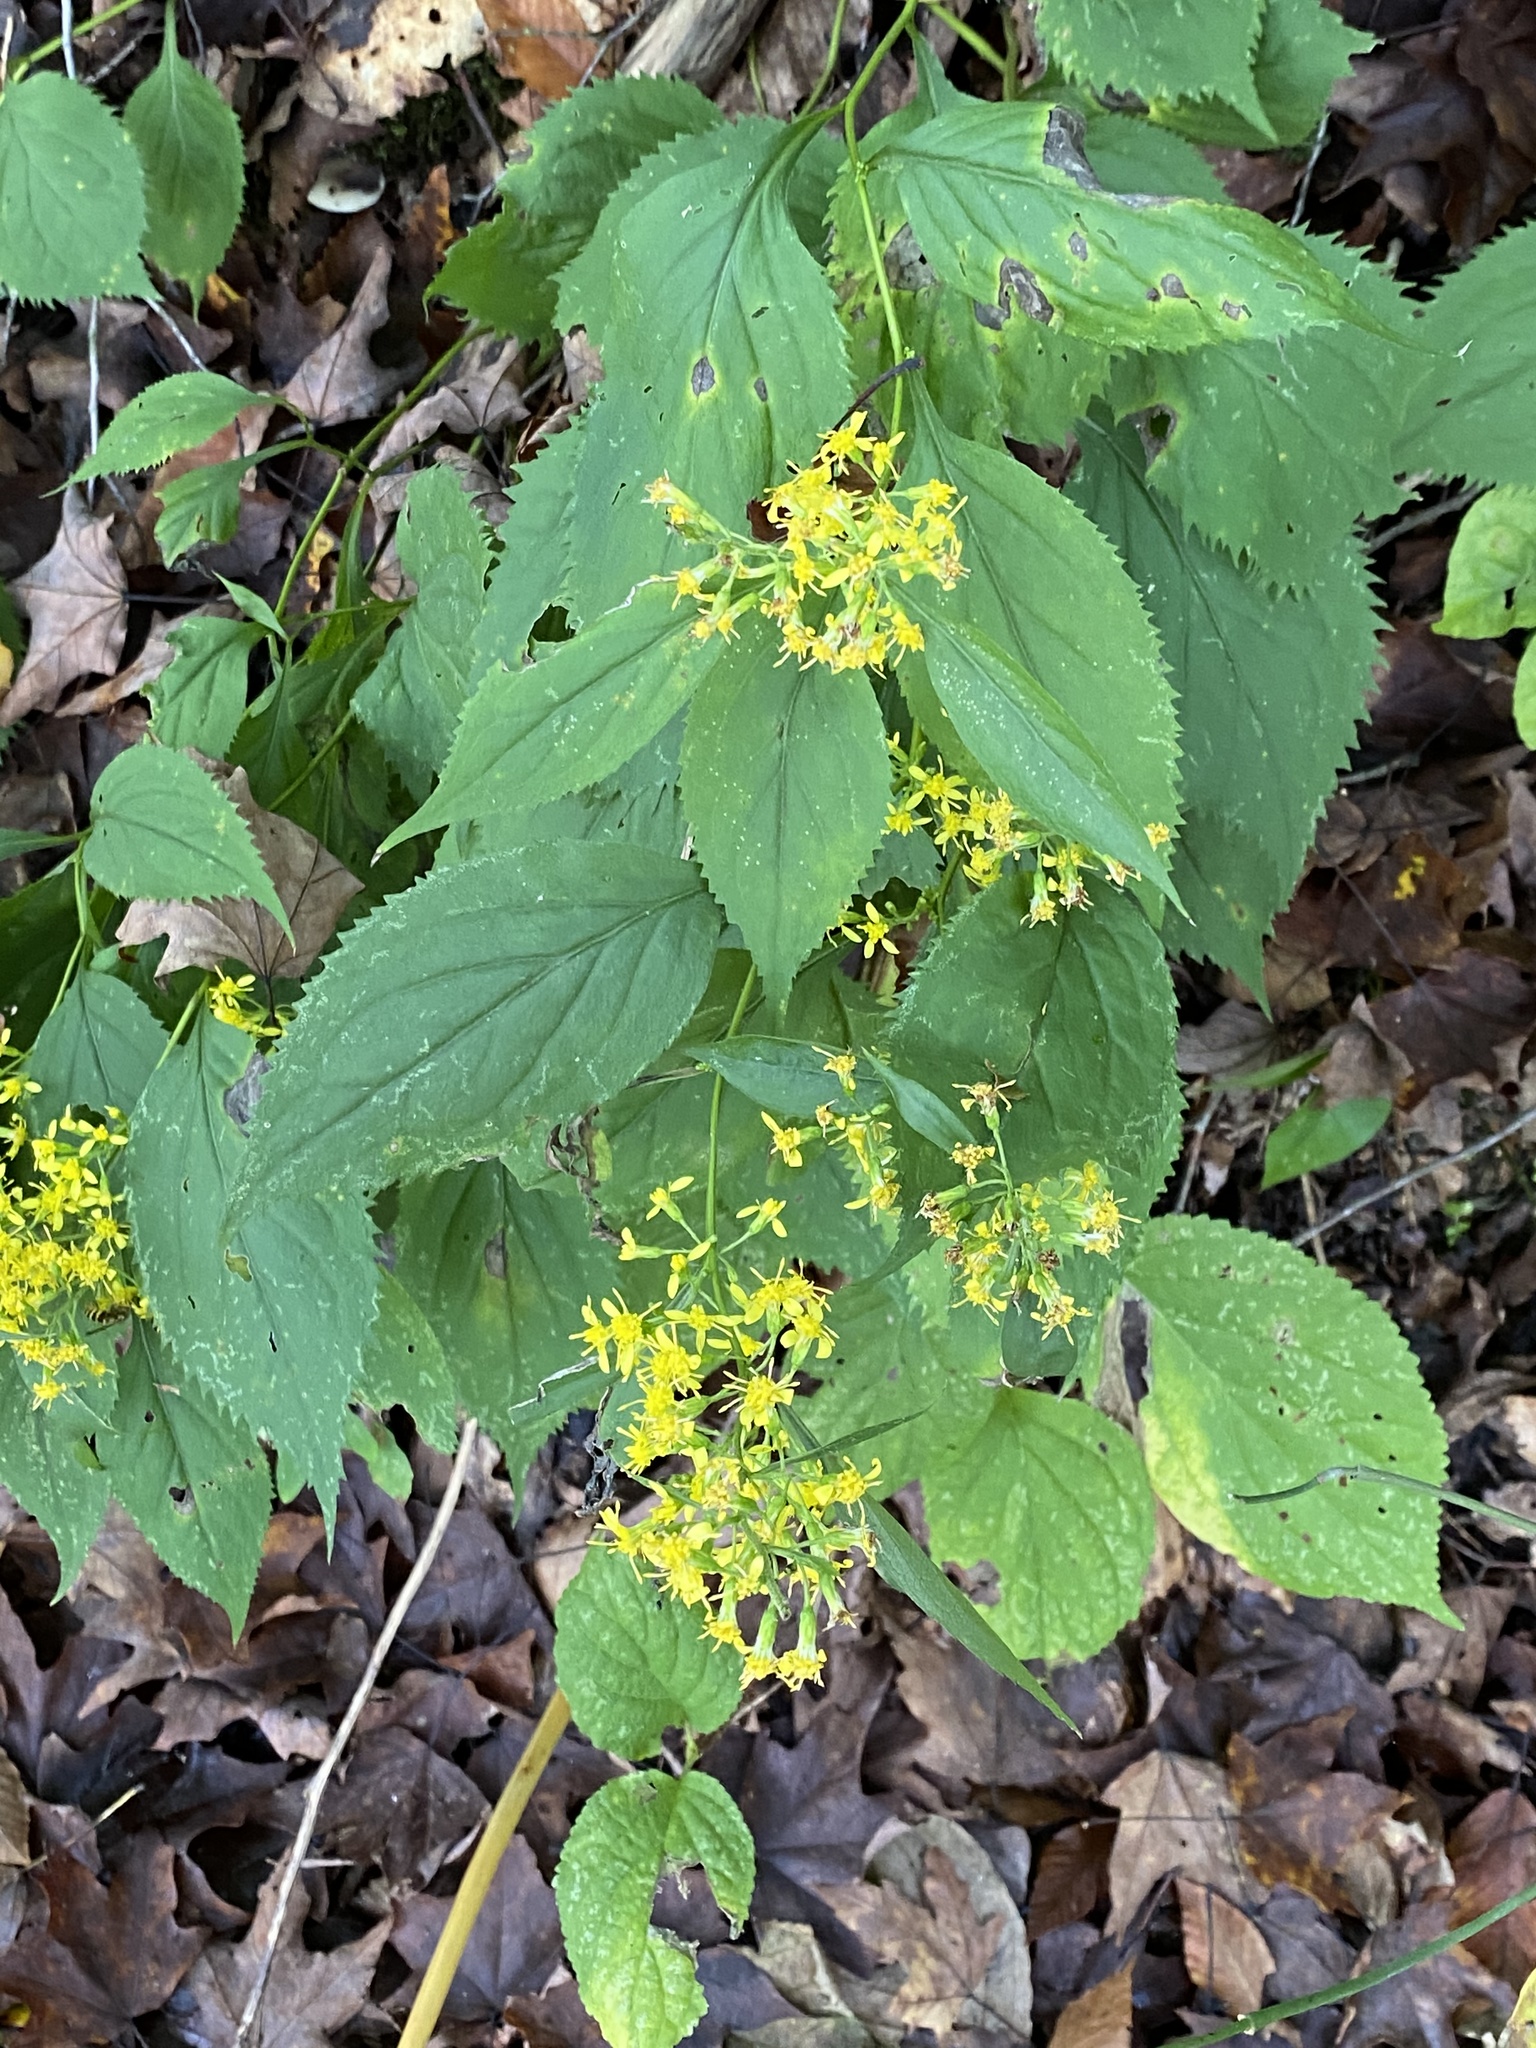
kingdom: Plantae
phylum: Tracheophyta
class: Magnoliopsida
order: Asterales
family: Asteraceae
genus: Solidago
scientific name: Solidago flexicaulis
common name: Zig-zag goldenrod
